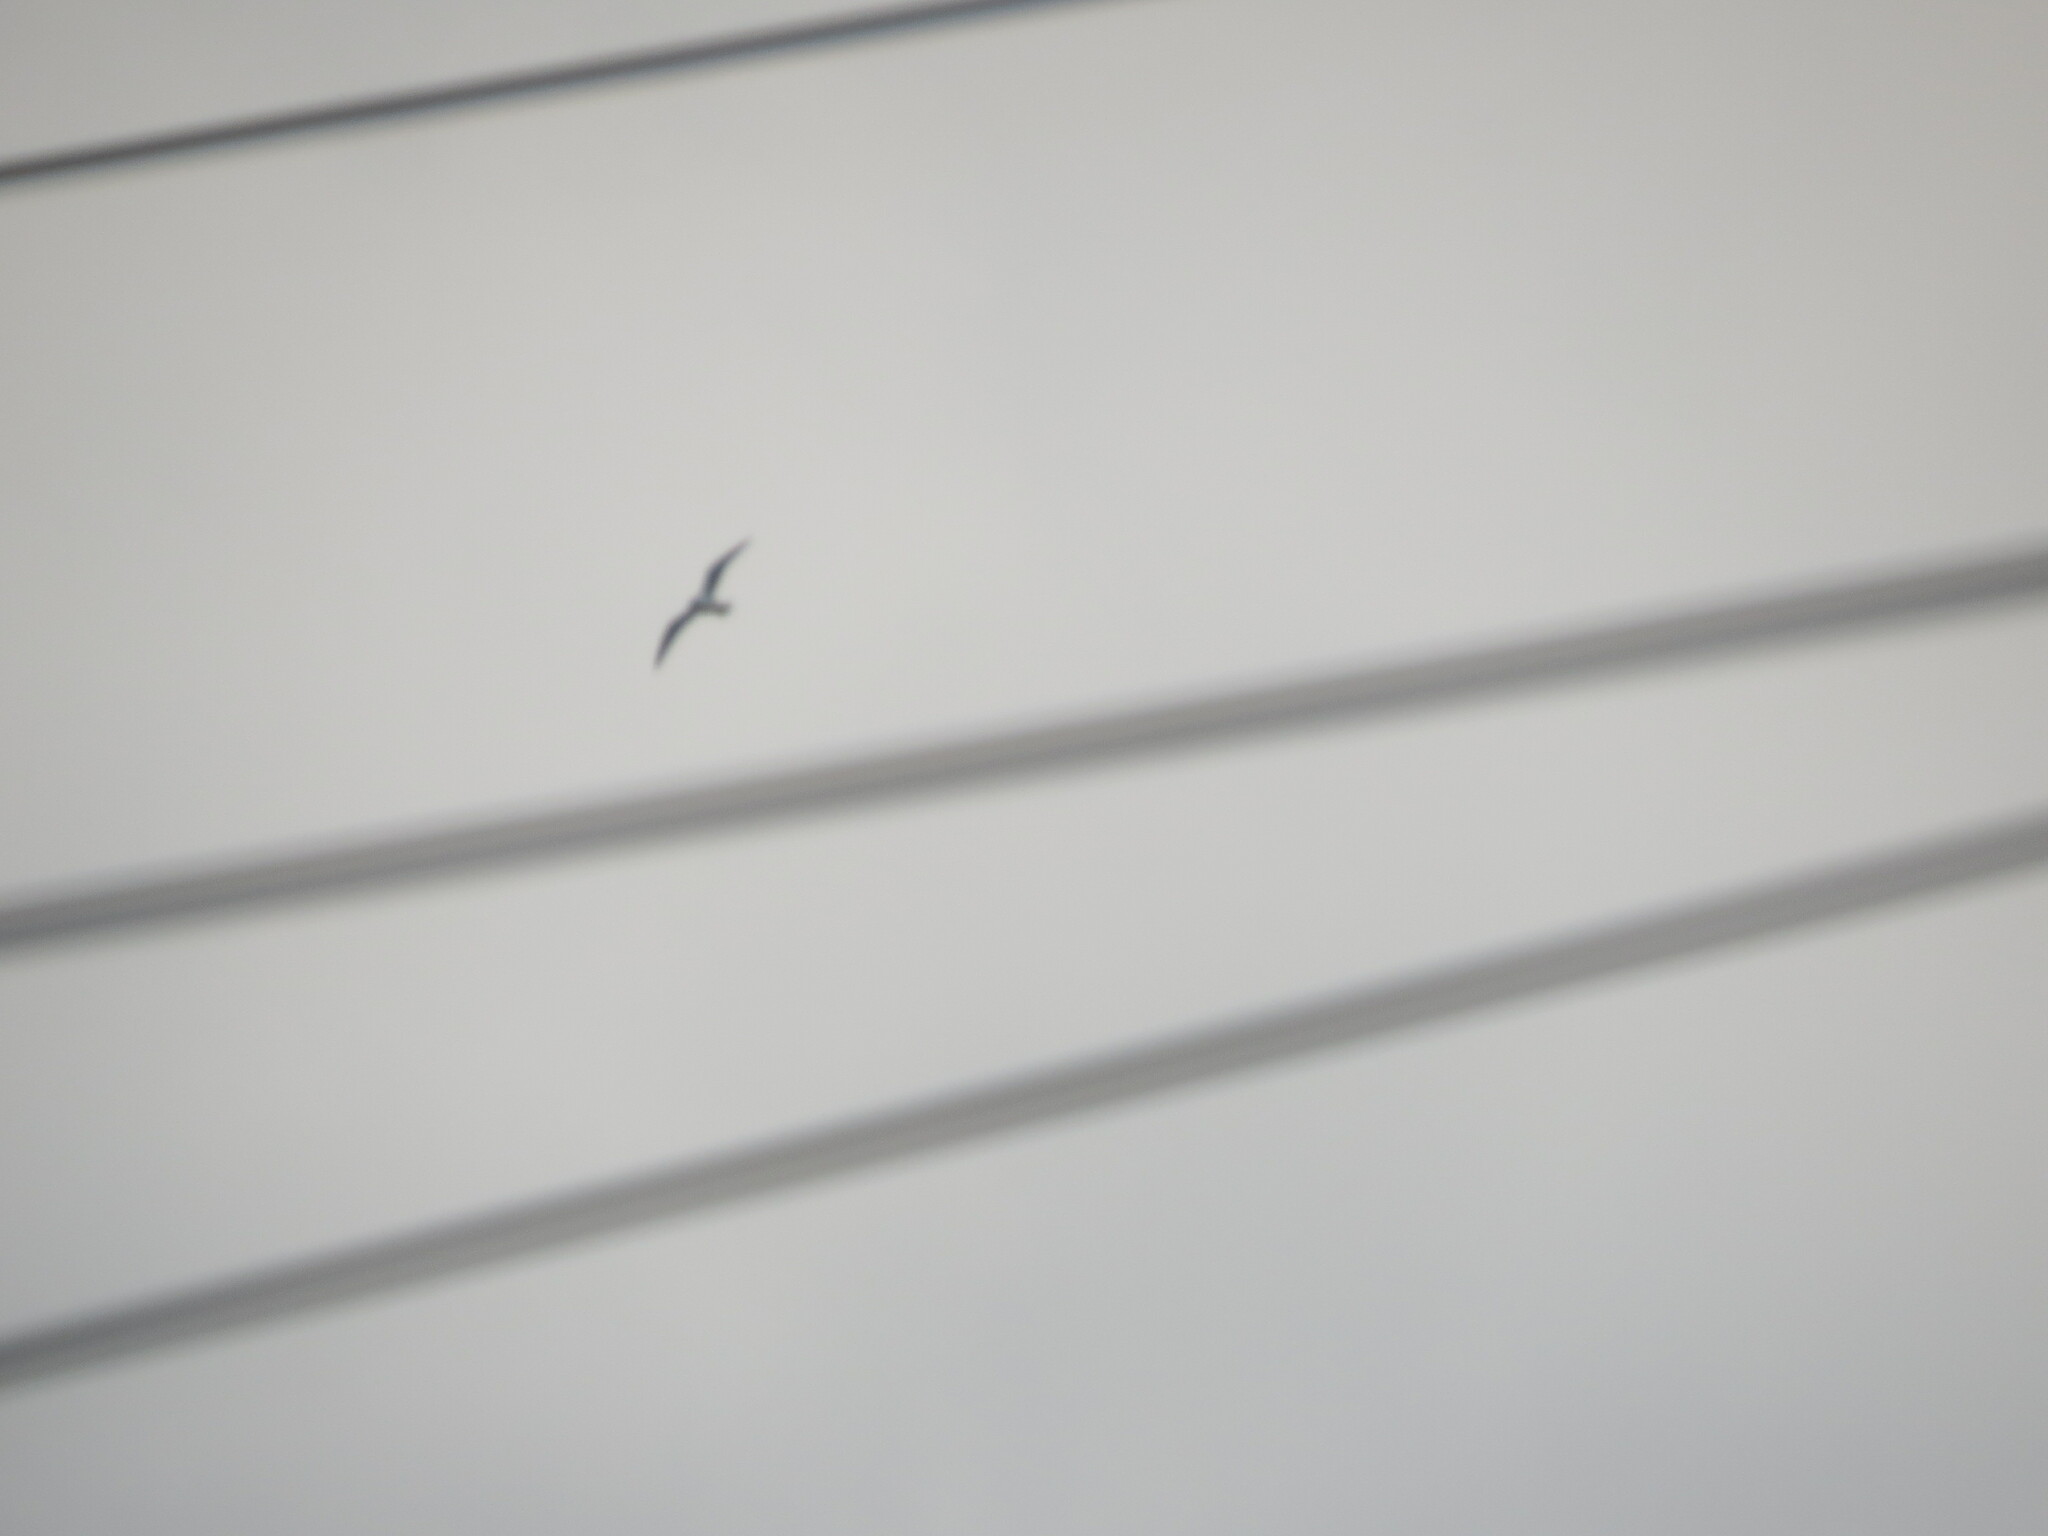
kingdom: Animalia
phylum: Chordata
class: Aves
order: Charadriiformes
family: Laridae
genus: Larus
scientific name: Larus
